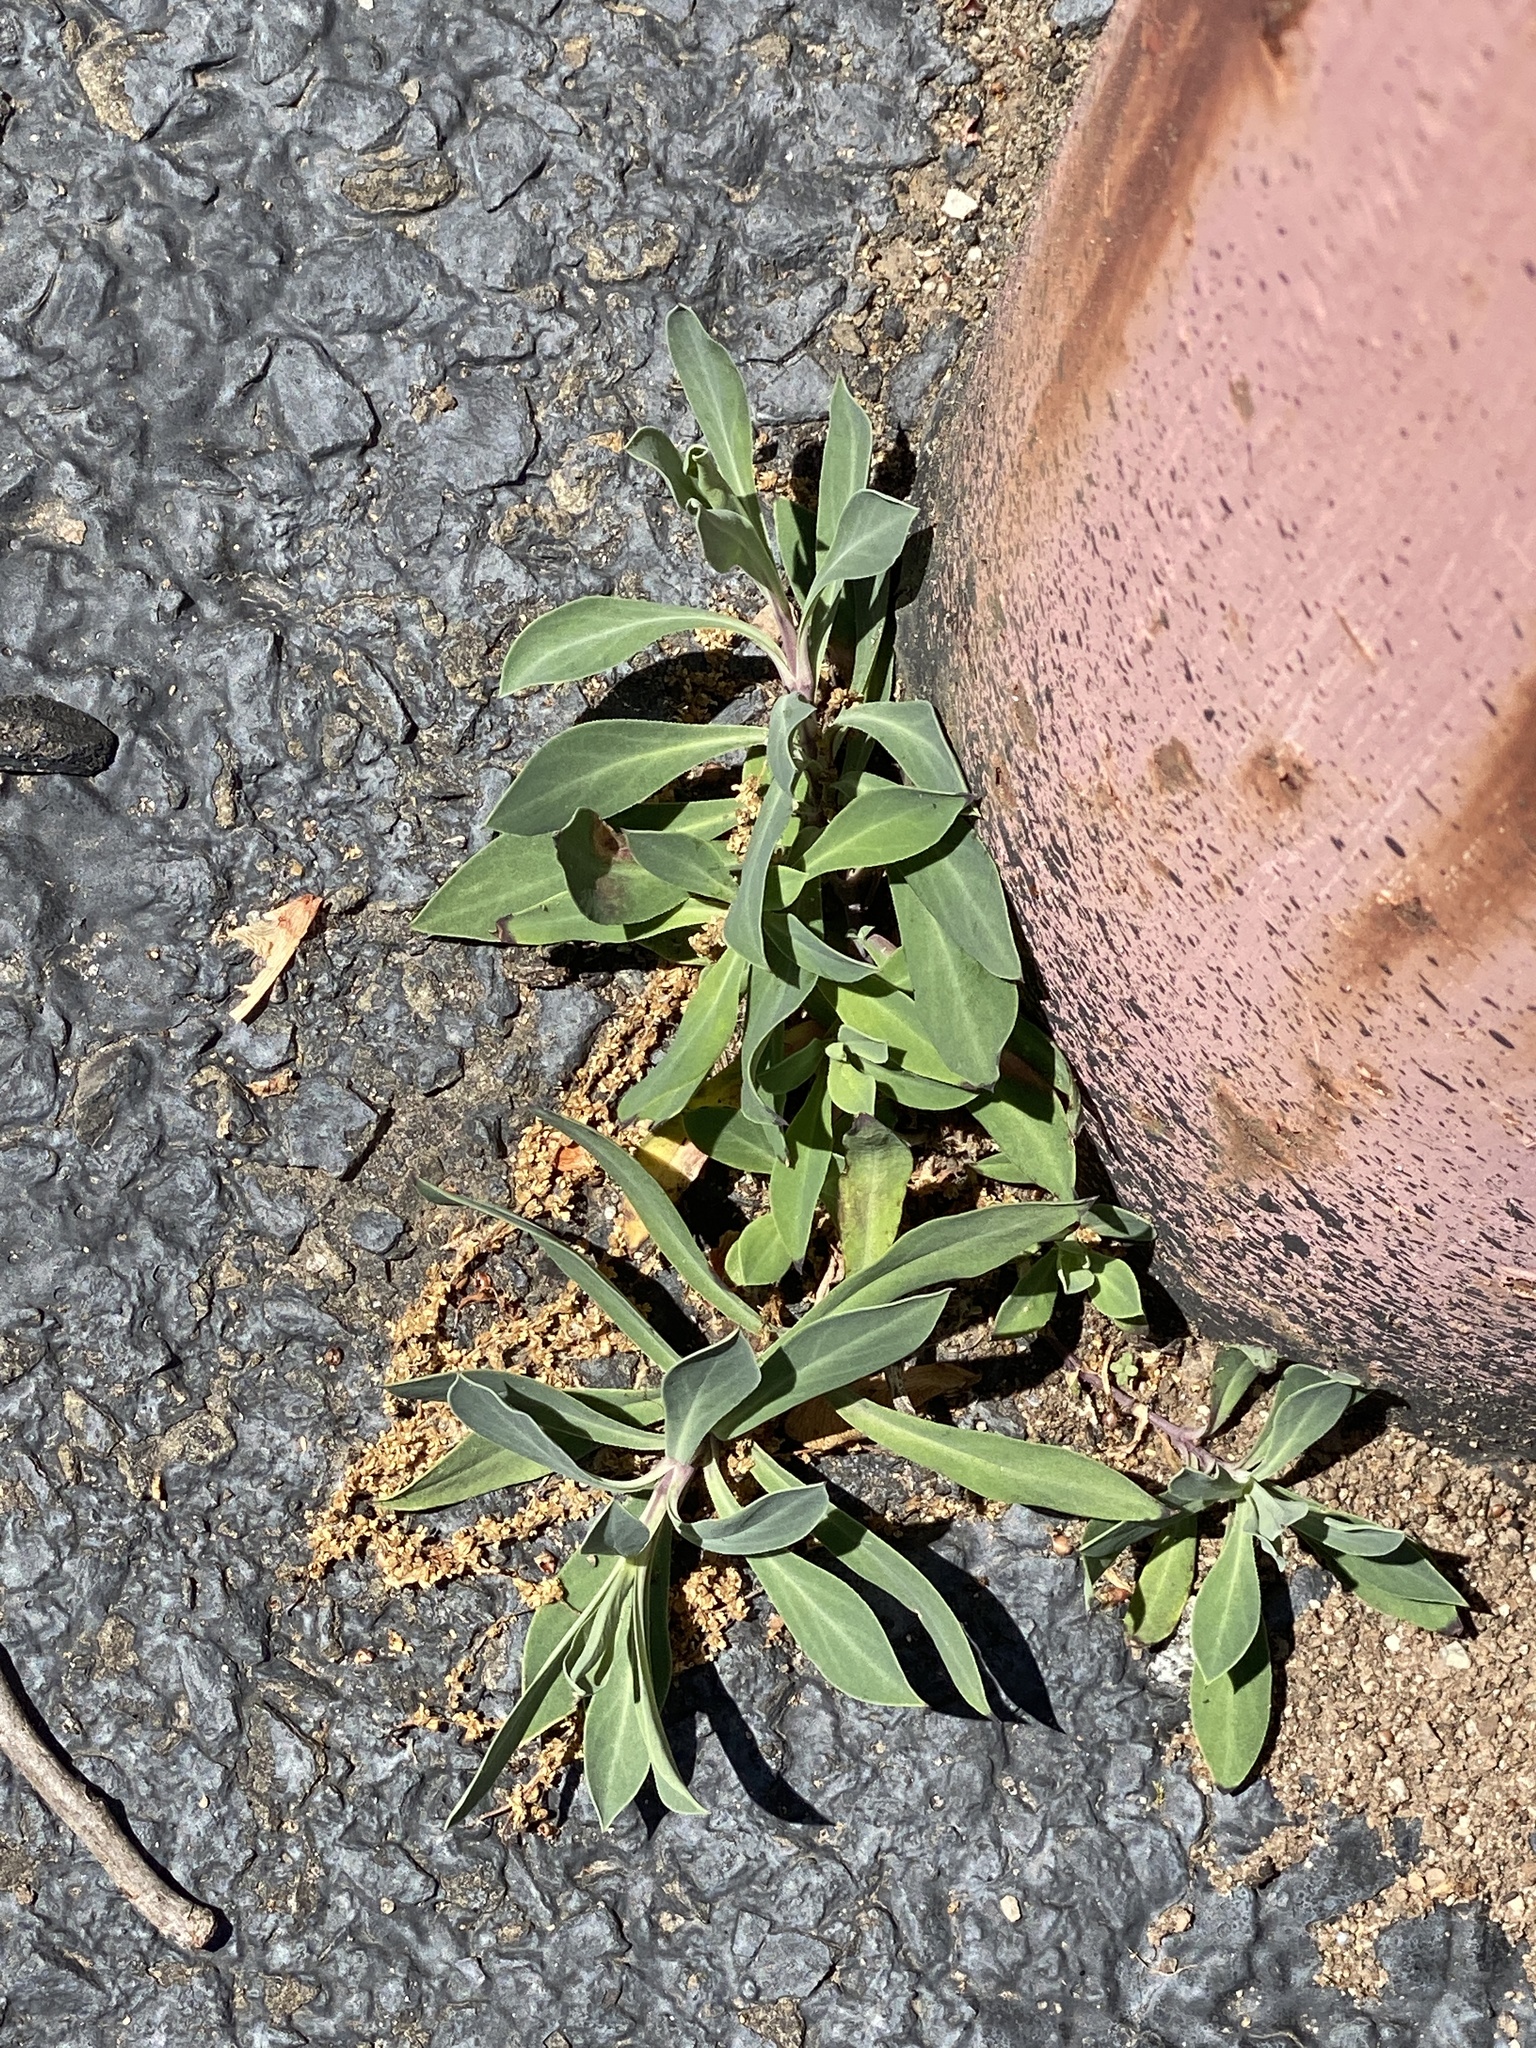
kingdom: Plantae
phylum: Tracheophyta
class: Magnoliopsida
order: Caryophyllales
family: Caryophyllaceae
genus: Silene
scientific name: Silene vulgaris
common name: Bladder campion
